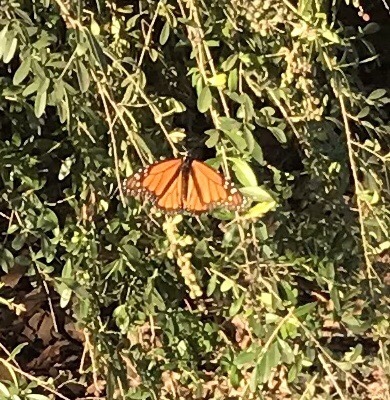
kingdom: Animalia
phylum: Arthropoda
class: Insecta
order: Lepidoptera
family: Nymphalidae
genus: Danaus
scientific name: Danaus plexippus
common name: Monarch
